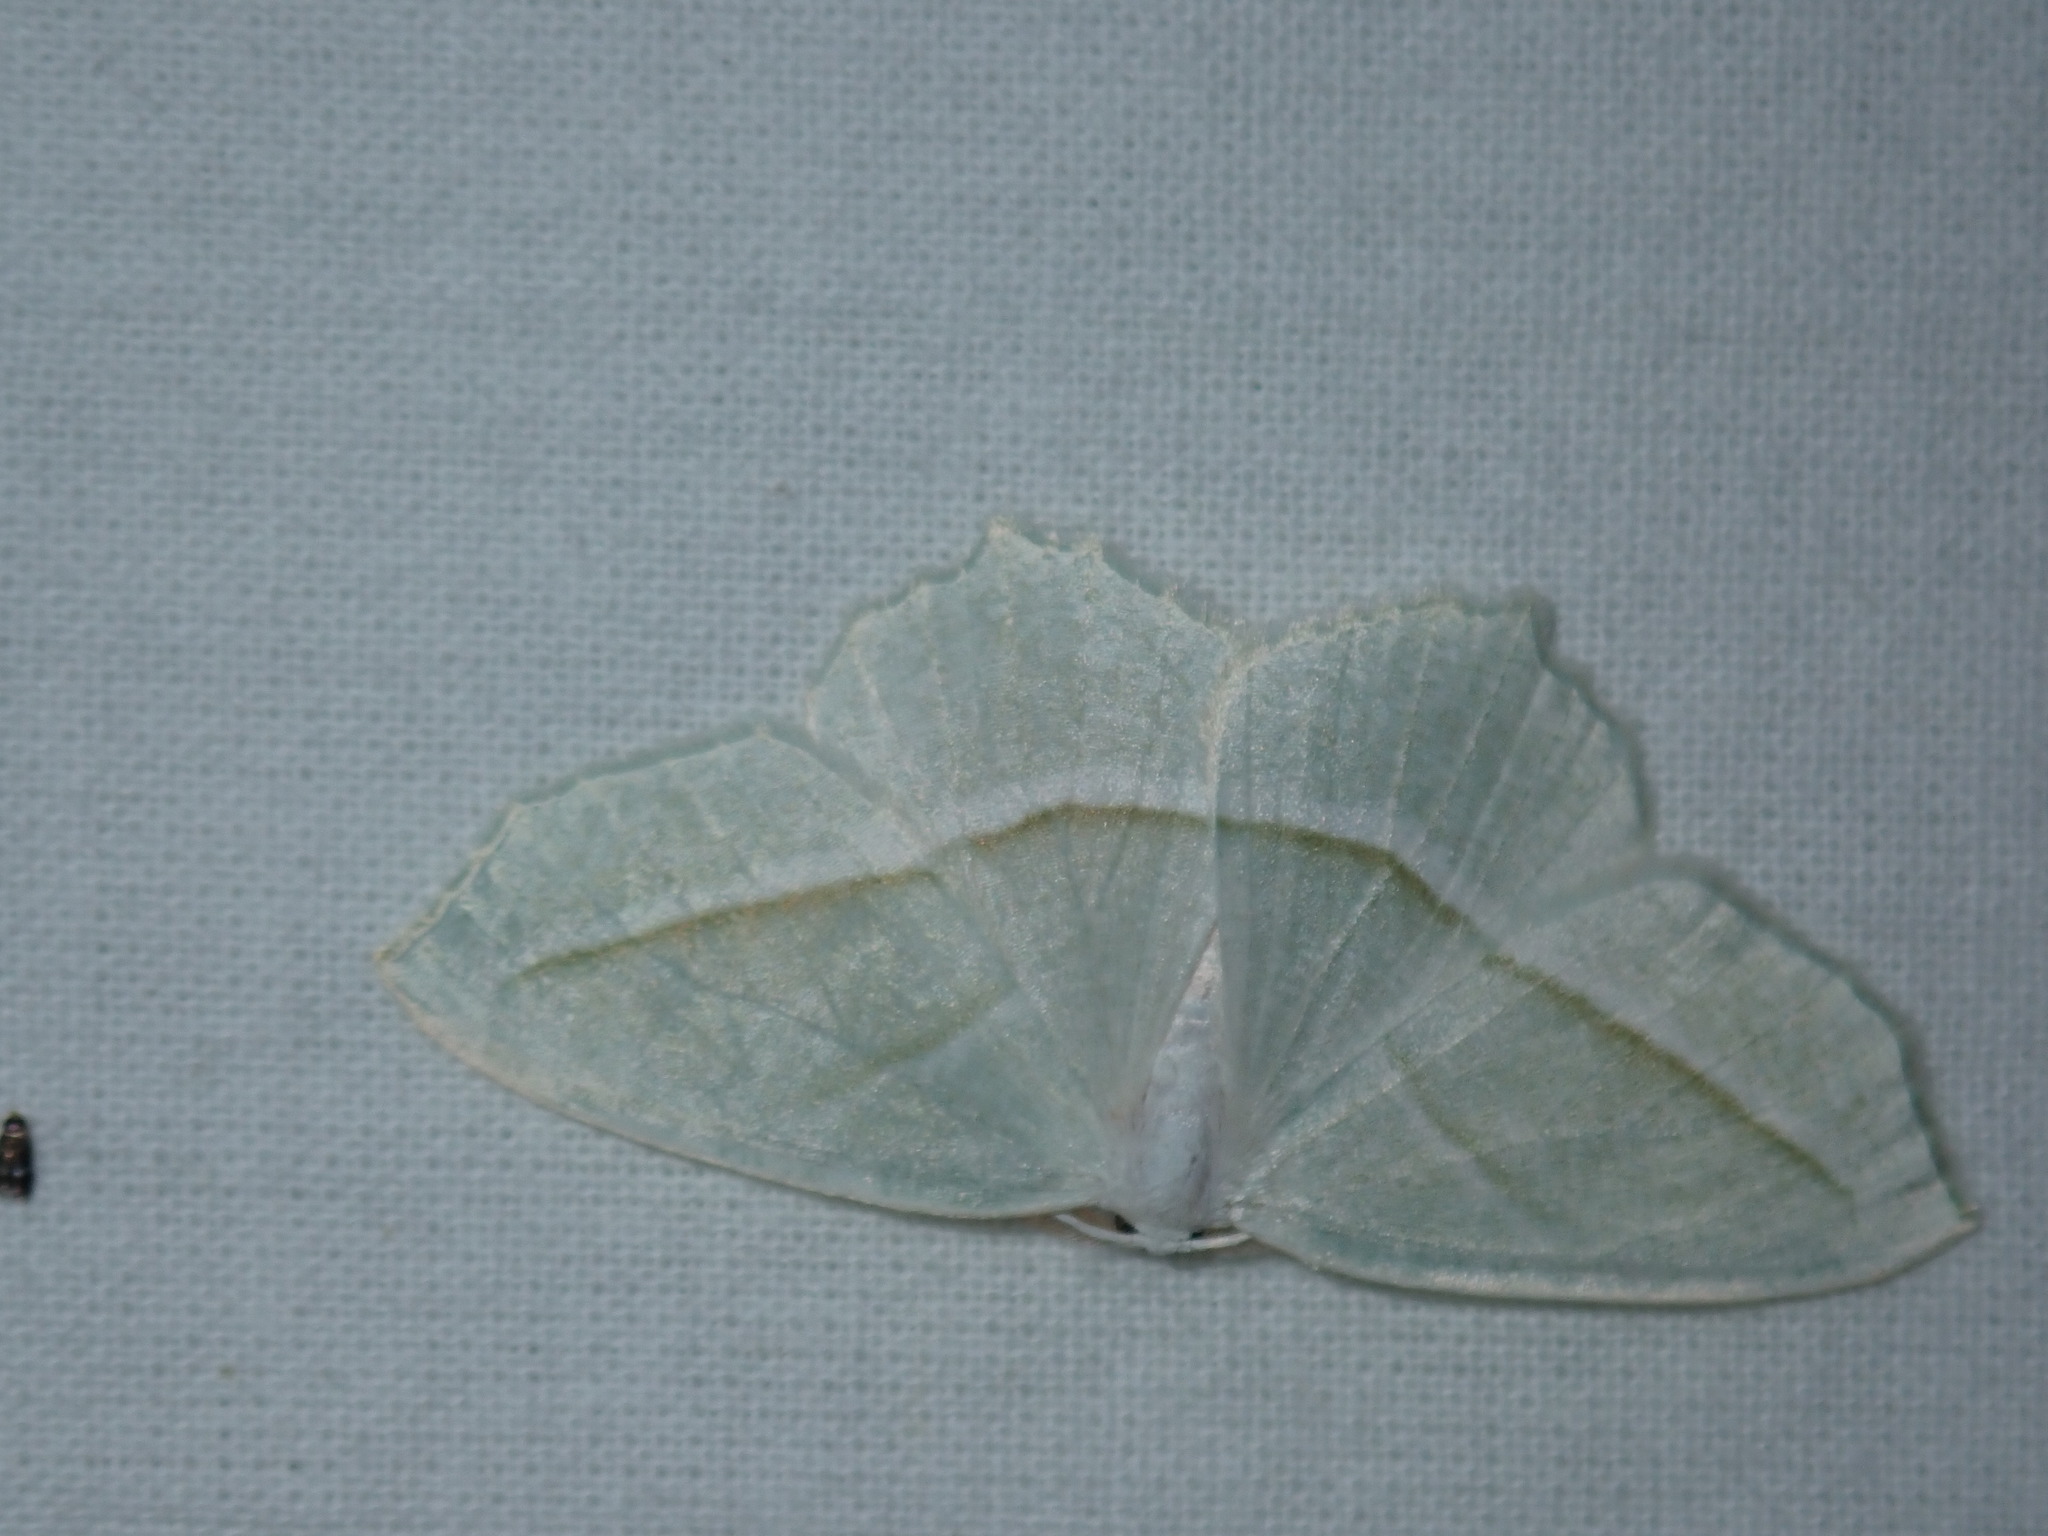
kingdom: Animalia
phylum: Arthropoda
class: Insecta
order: Lepidoptera
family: Geometridae
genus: Campaea
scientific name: Campaea perlata
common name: Fringed looper
